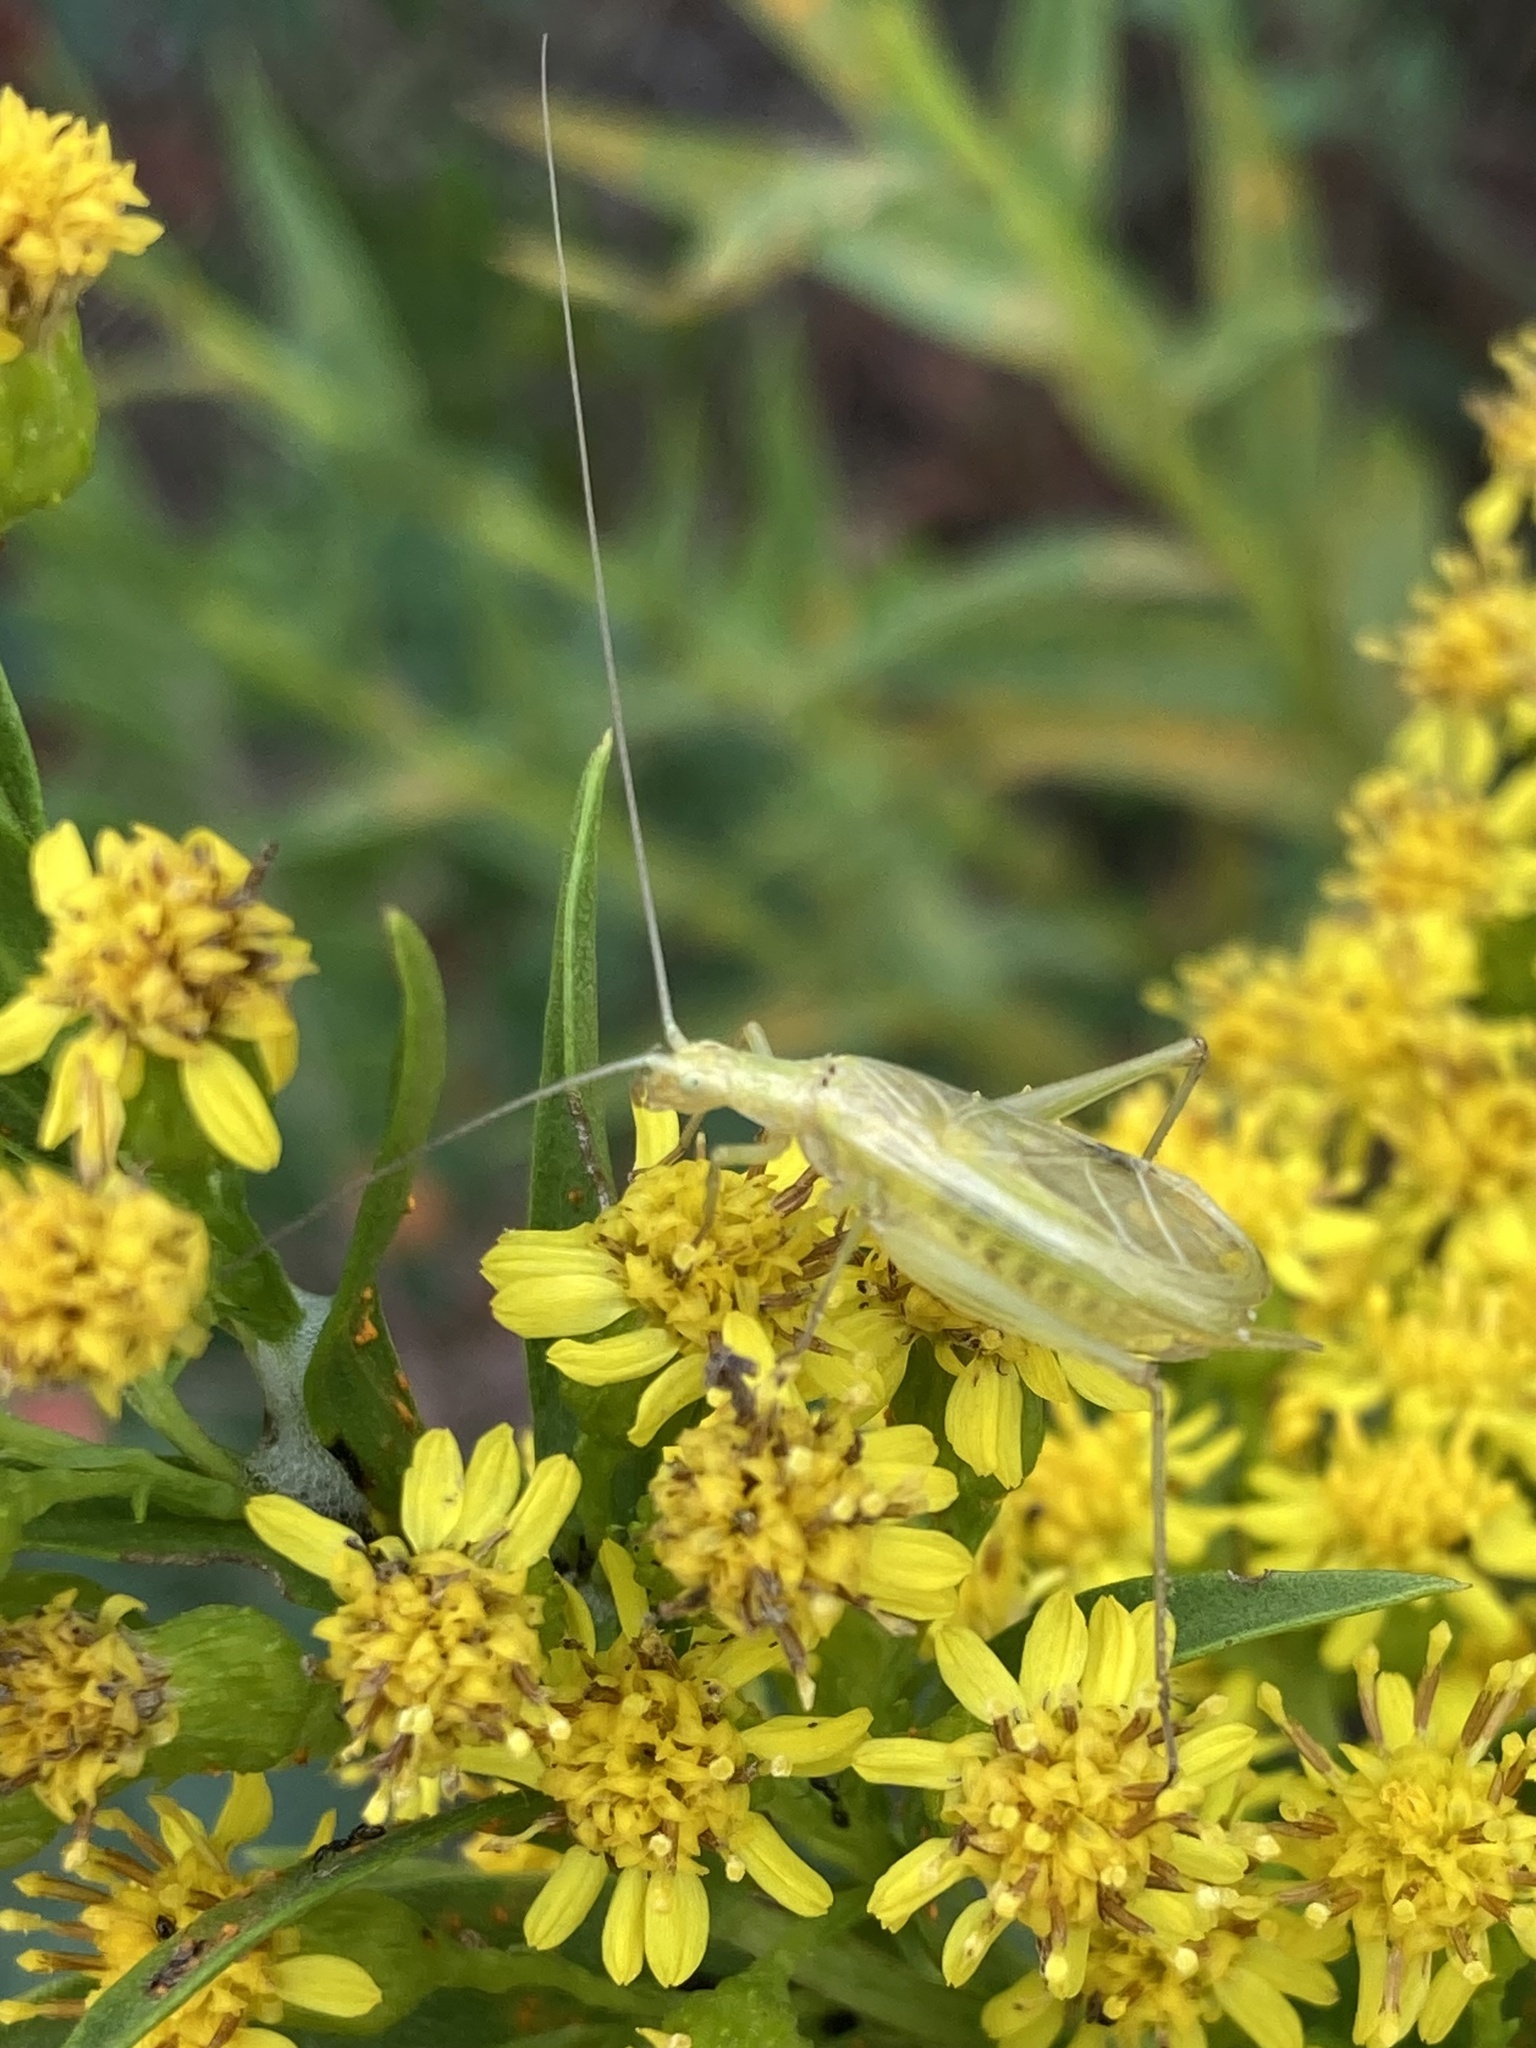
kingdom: Animalia
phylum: Arthropoda
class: Insecta
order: Orthoptera
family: Gryllidae
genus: Oecanthus
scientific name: Oecanthus nigricornis
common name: Black-horned tree cricket
